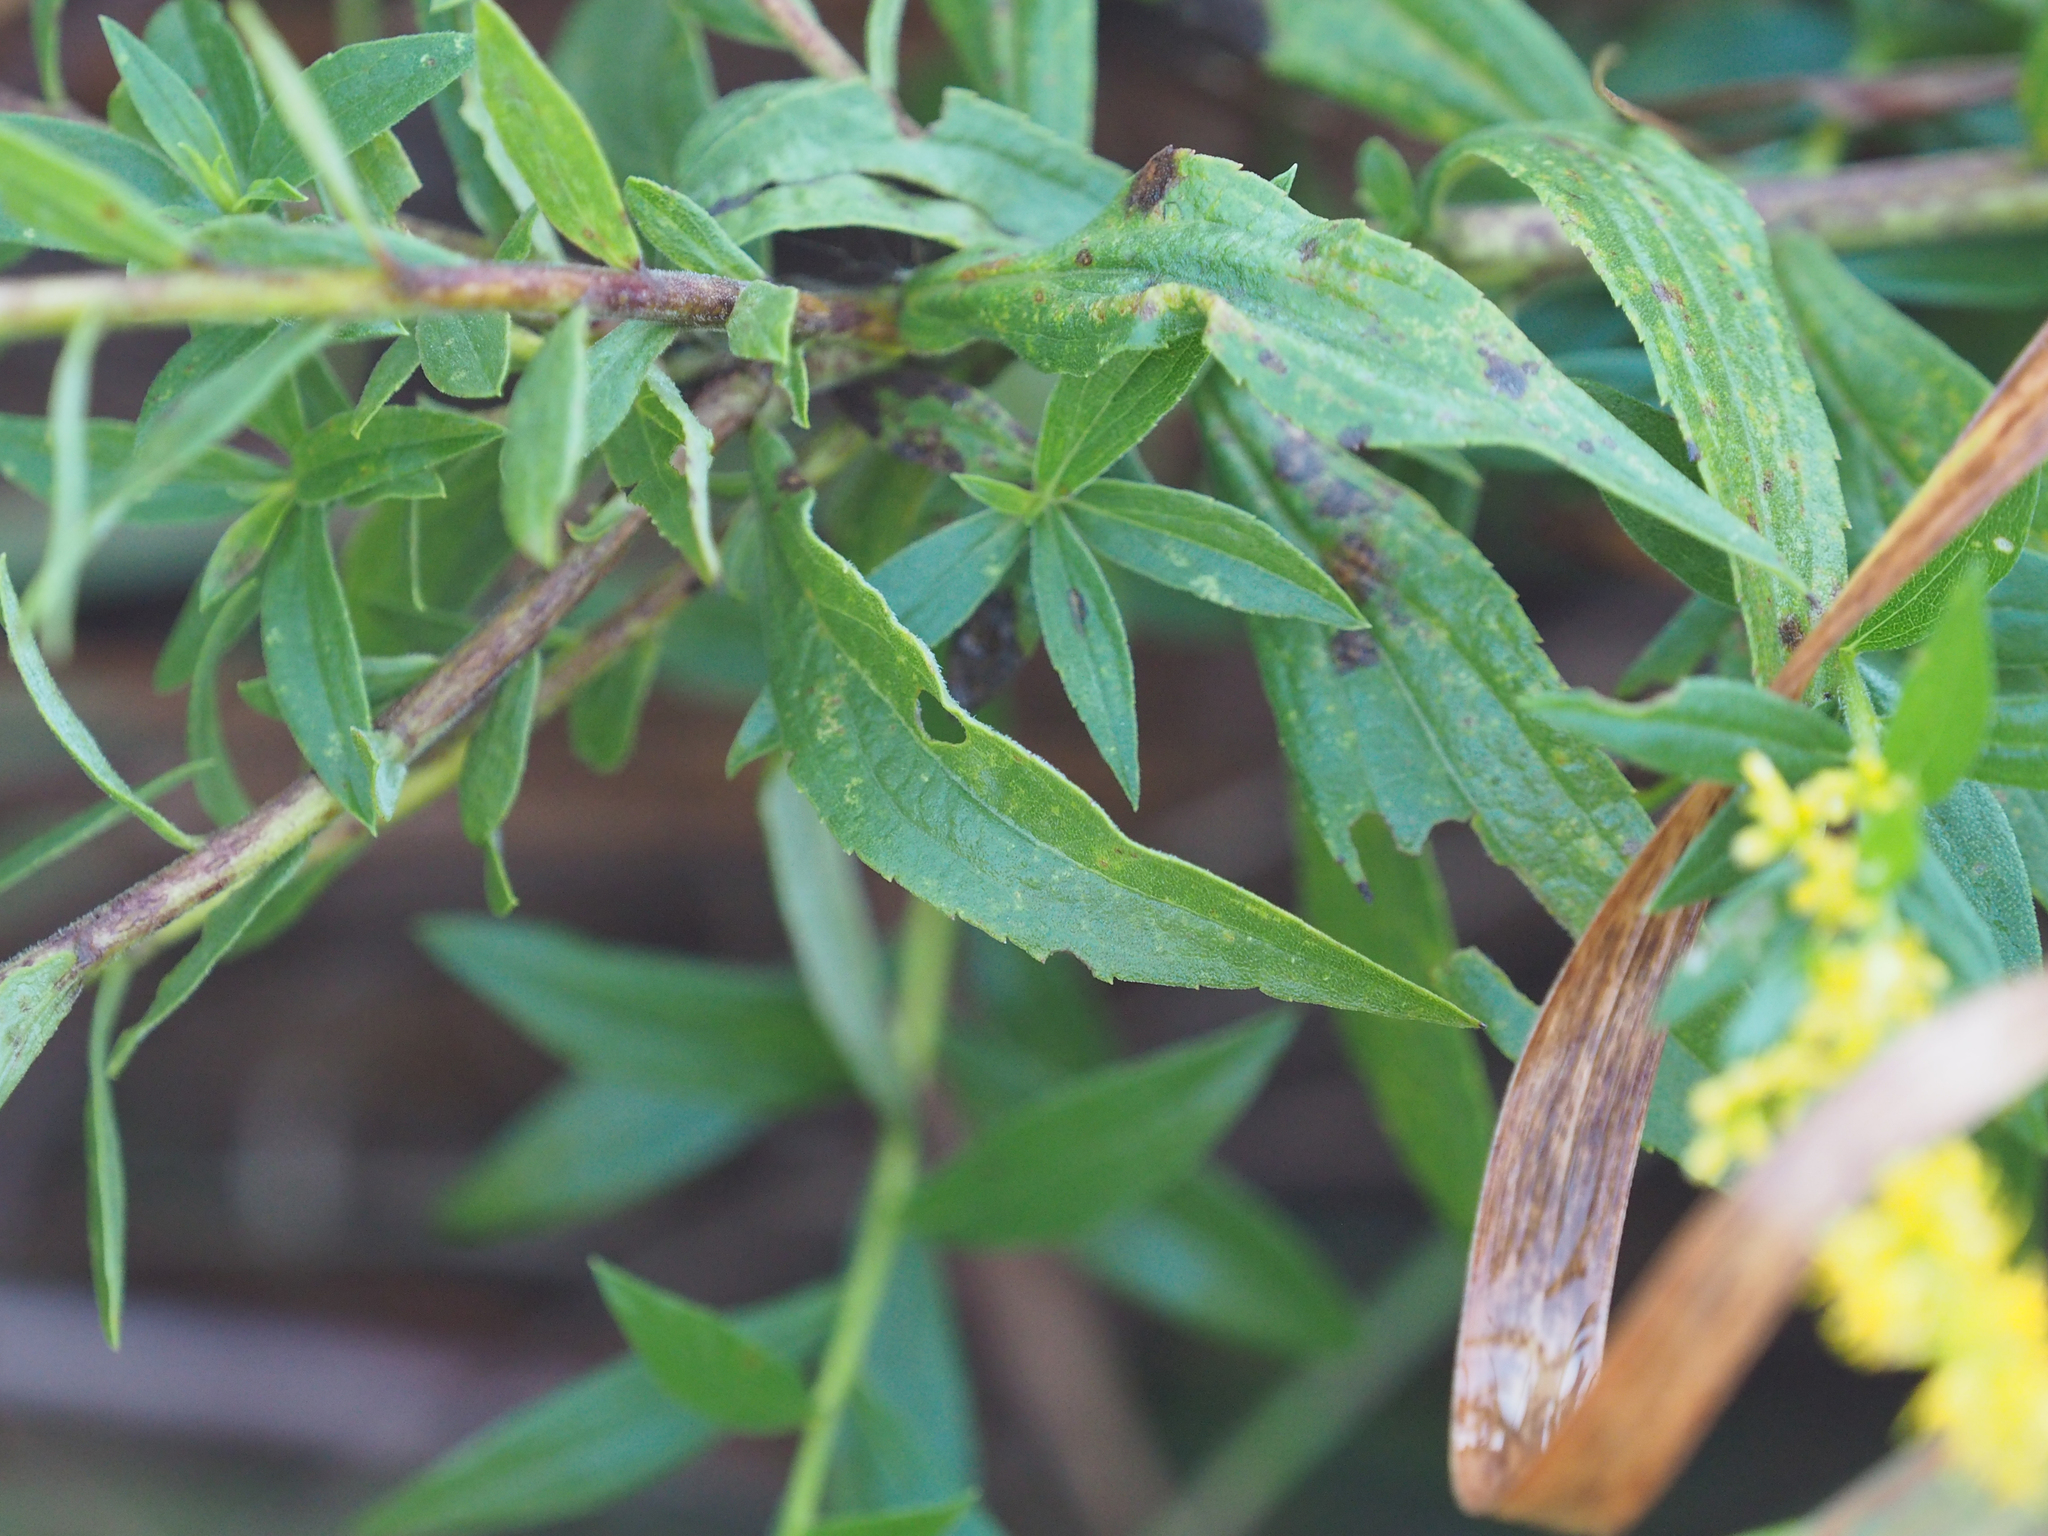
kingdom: Plantae
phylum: Tracheophyta
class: Magnoliopsida
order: Asterales
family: Asteraceae
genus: Solidago
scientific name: Solidago altissima
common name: Late goldenrod
